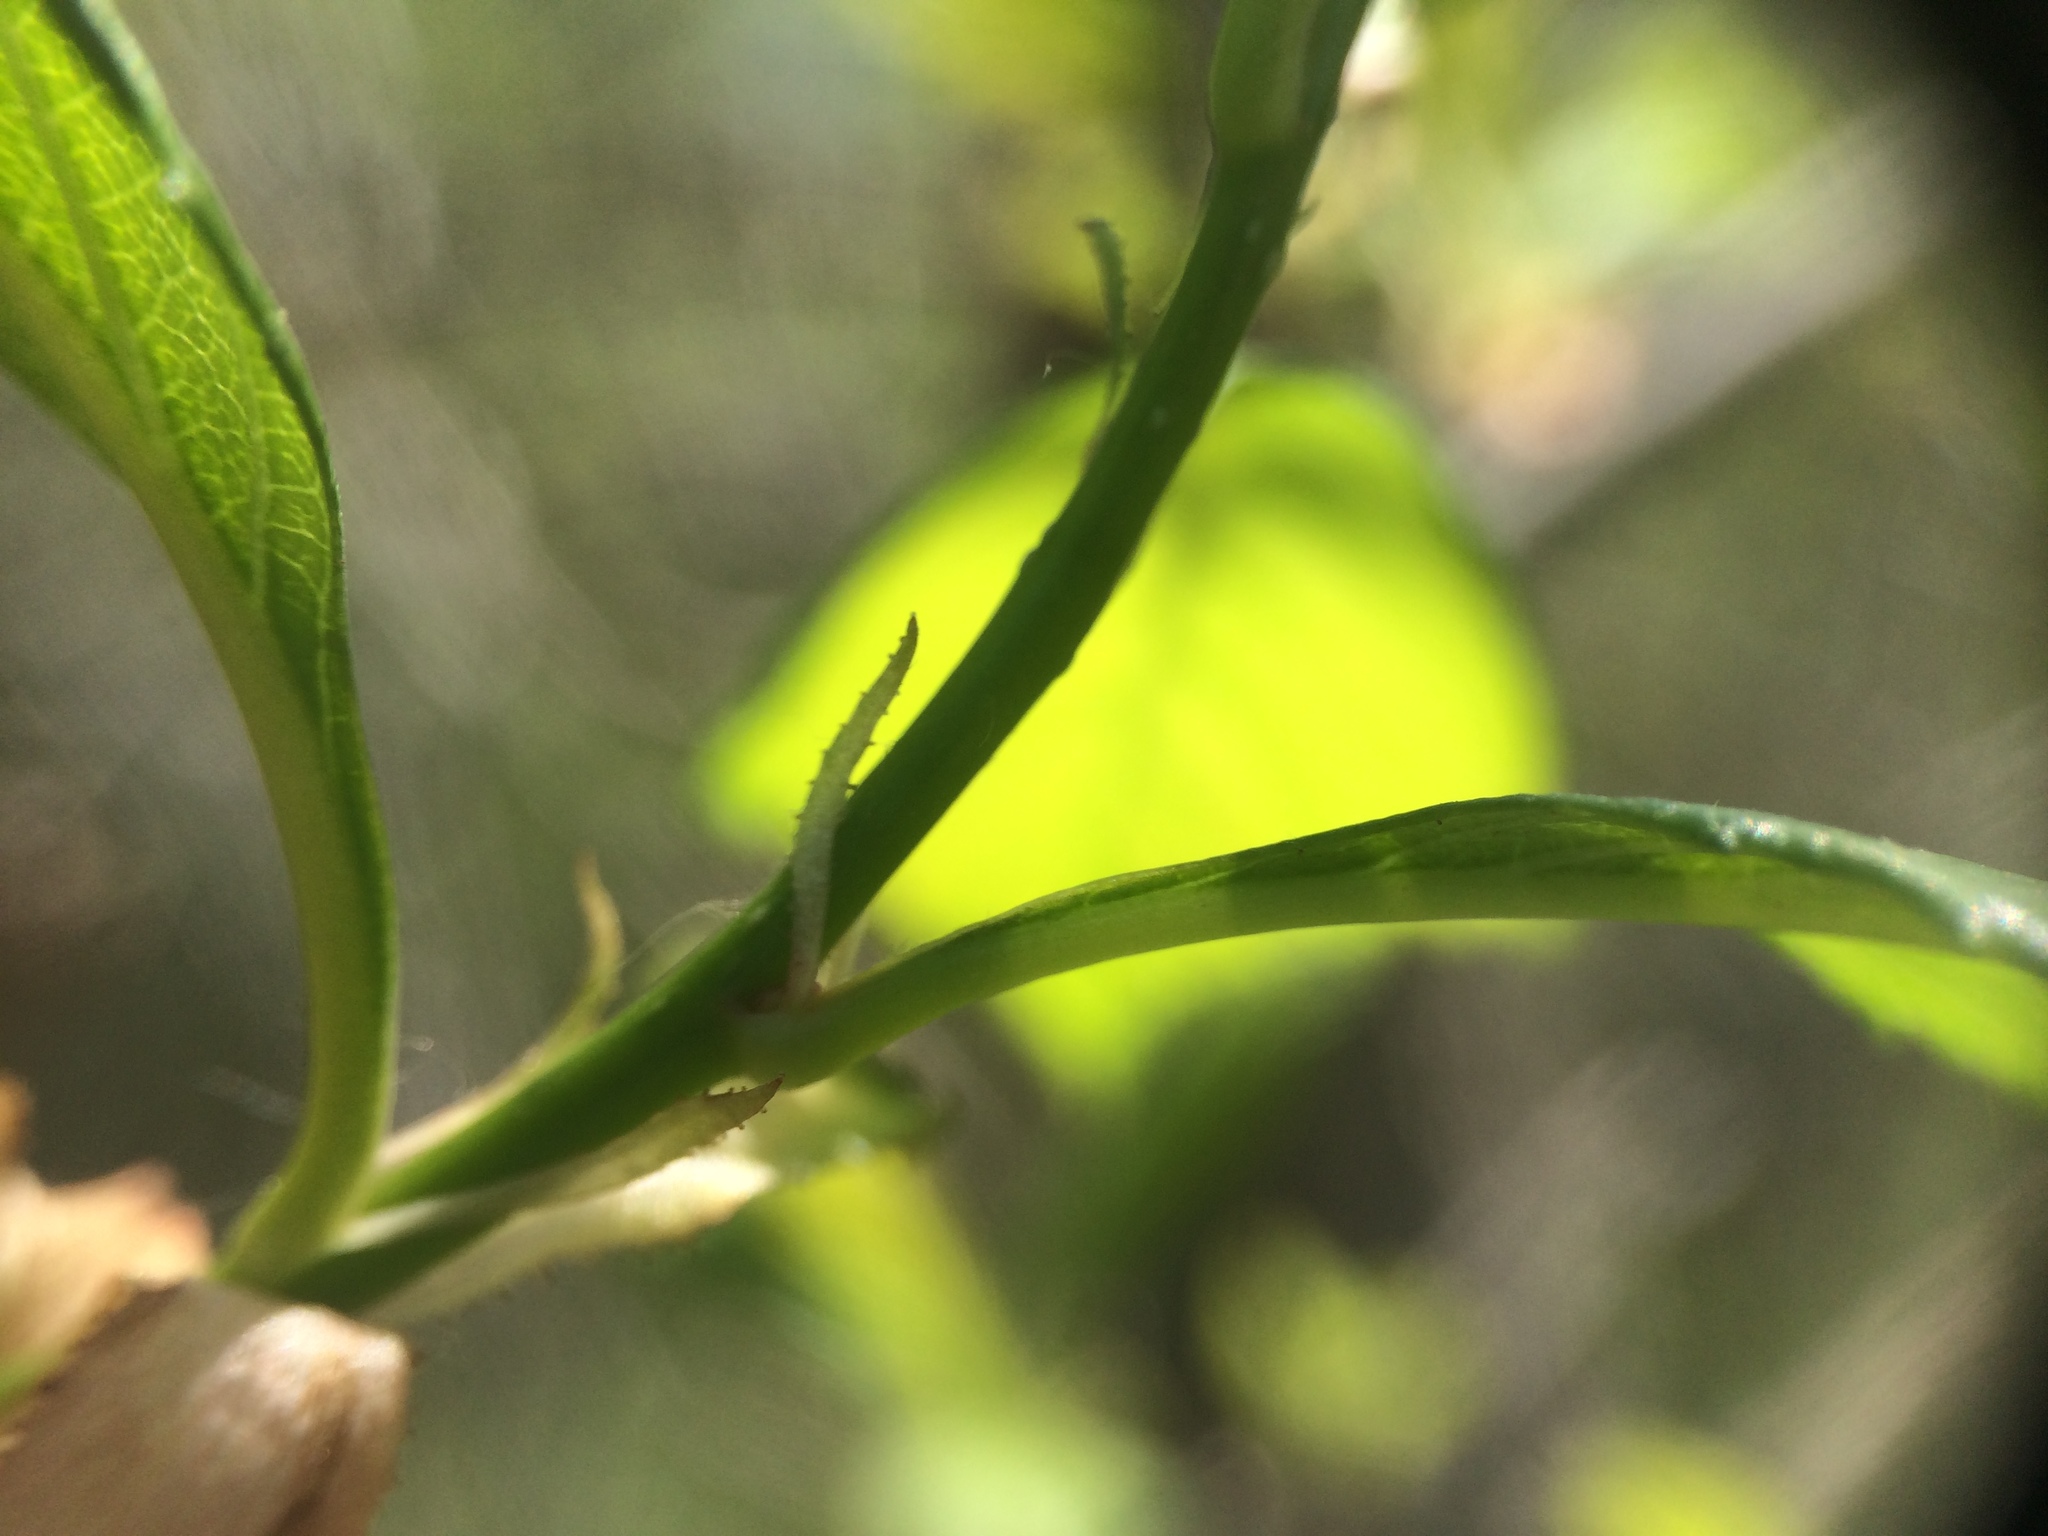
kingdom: Plantae
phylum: Tracheophyta
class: Magnoliopsida
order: Rosales
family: Rosaceae
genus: Crataegus
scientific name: Crataegus macracantha
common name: Large-thorn hawthorn
